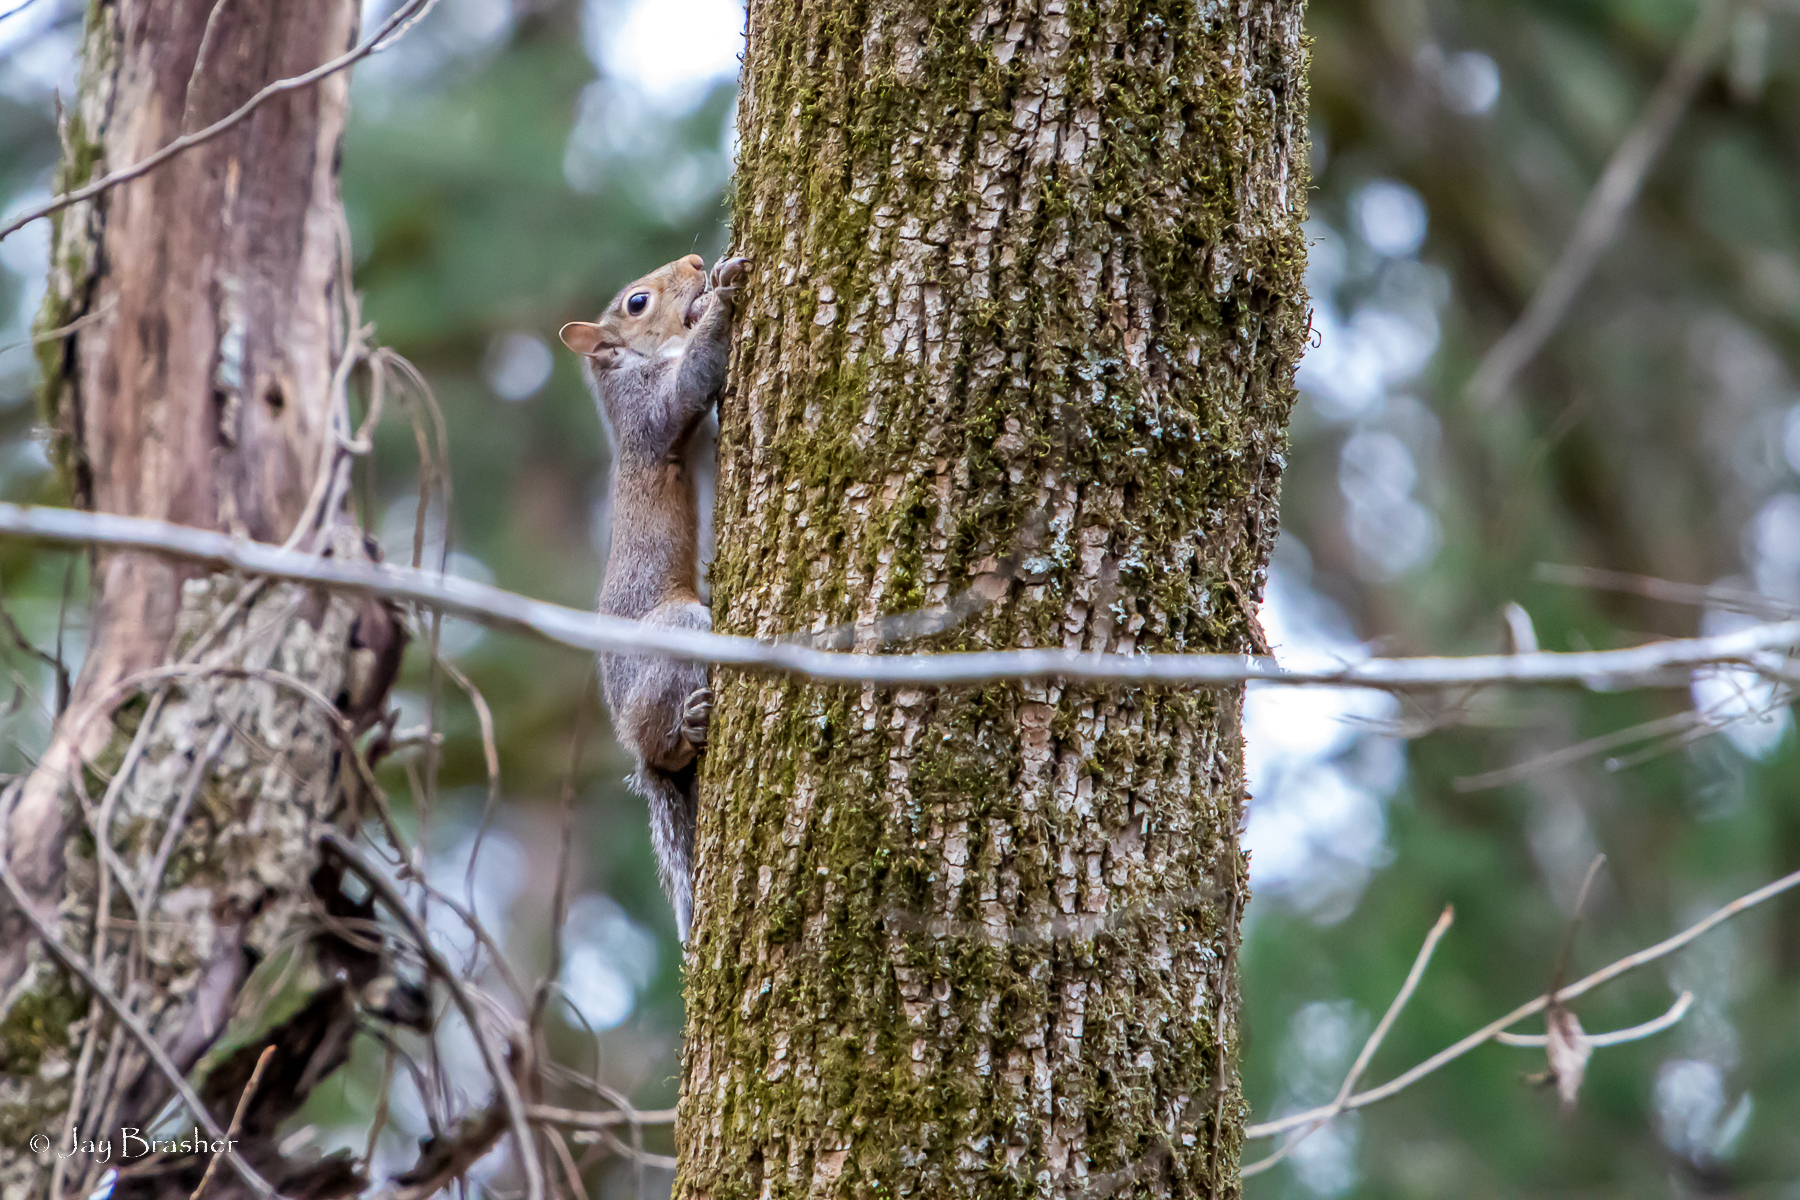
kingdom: Animalia
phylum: Chordata
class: Mammalia
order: Rodentia
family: Sciuridae
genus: Sciurus
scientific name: Sciurus carolinensis
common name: Eastern gray squirrel
